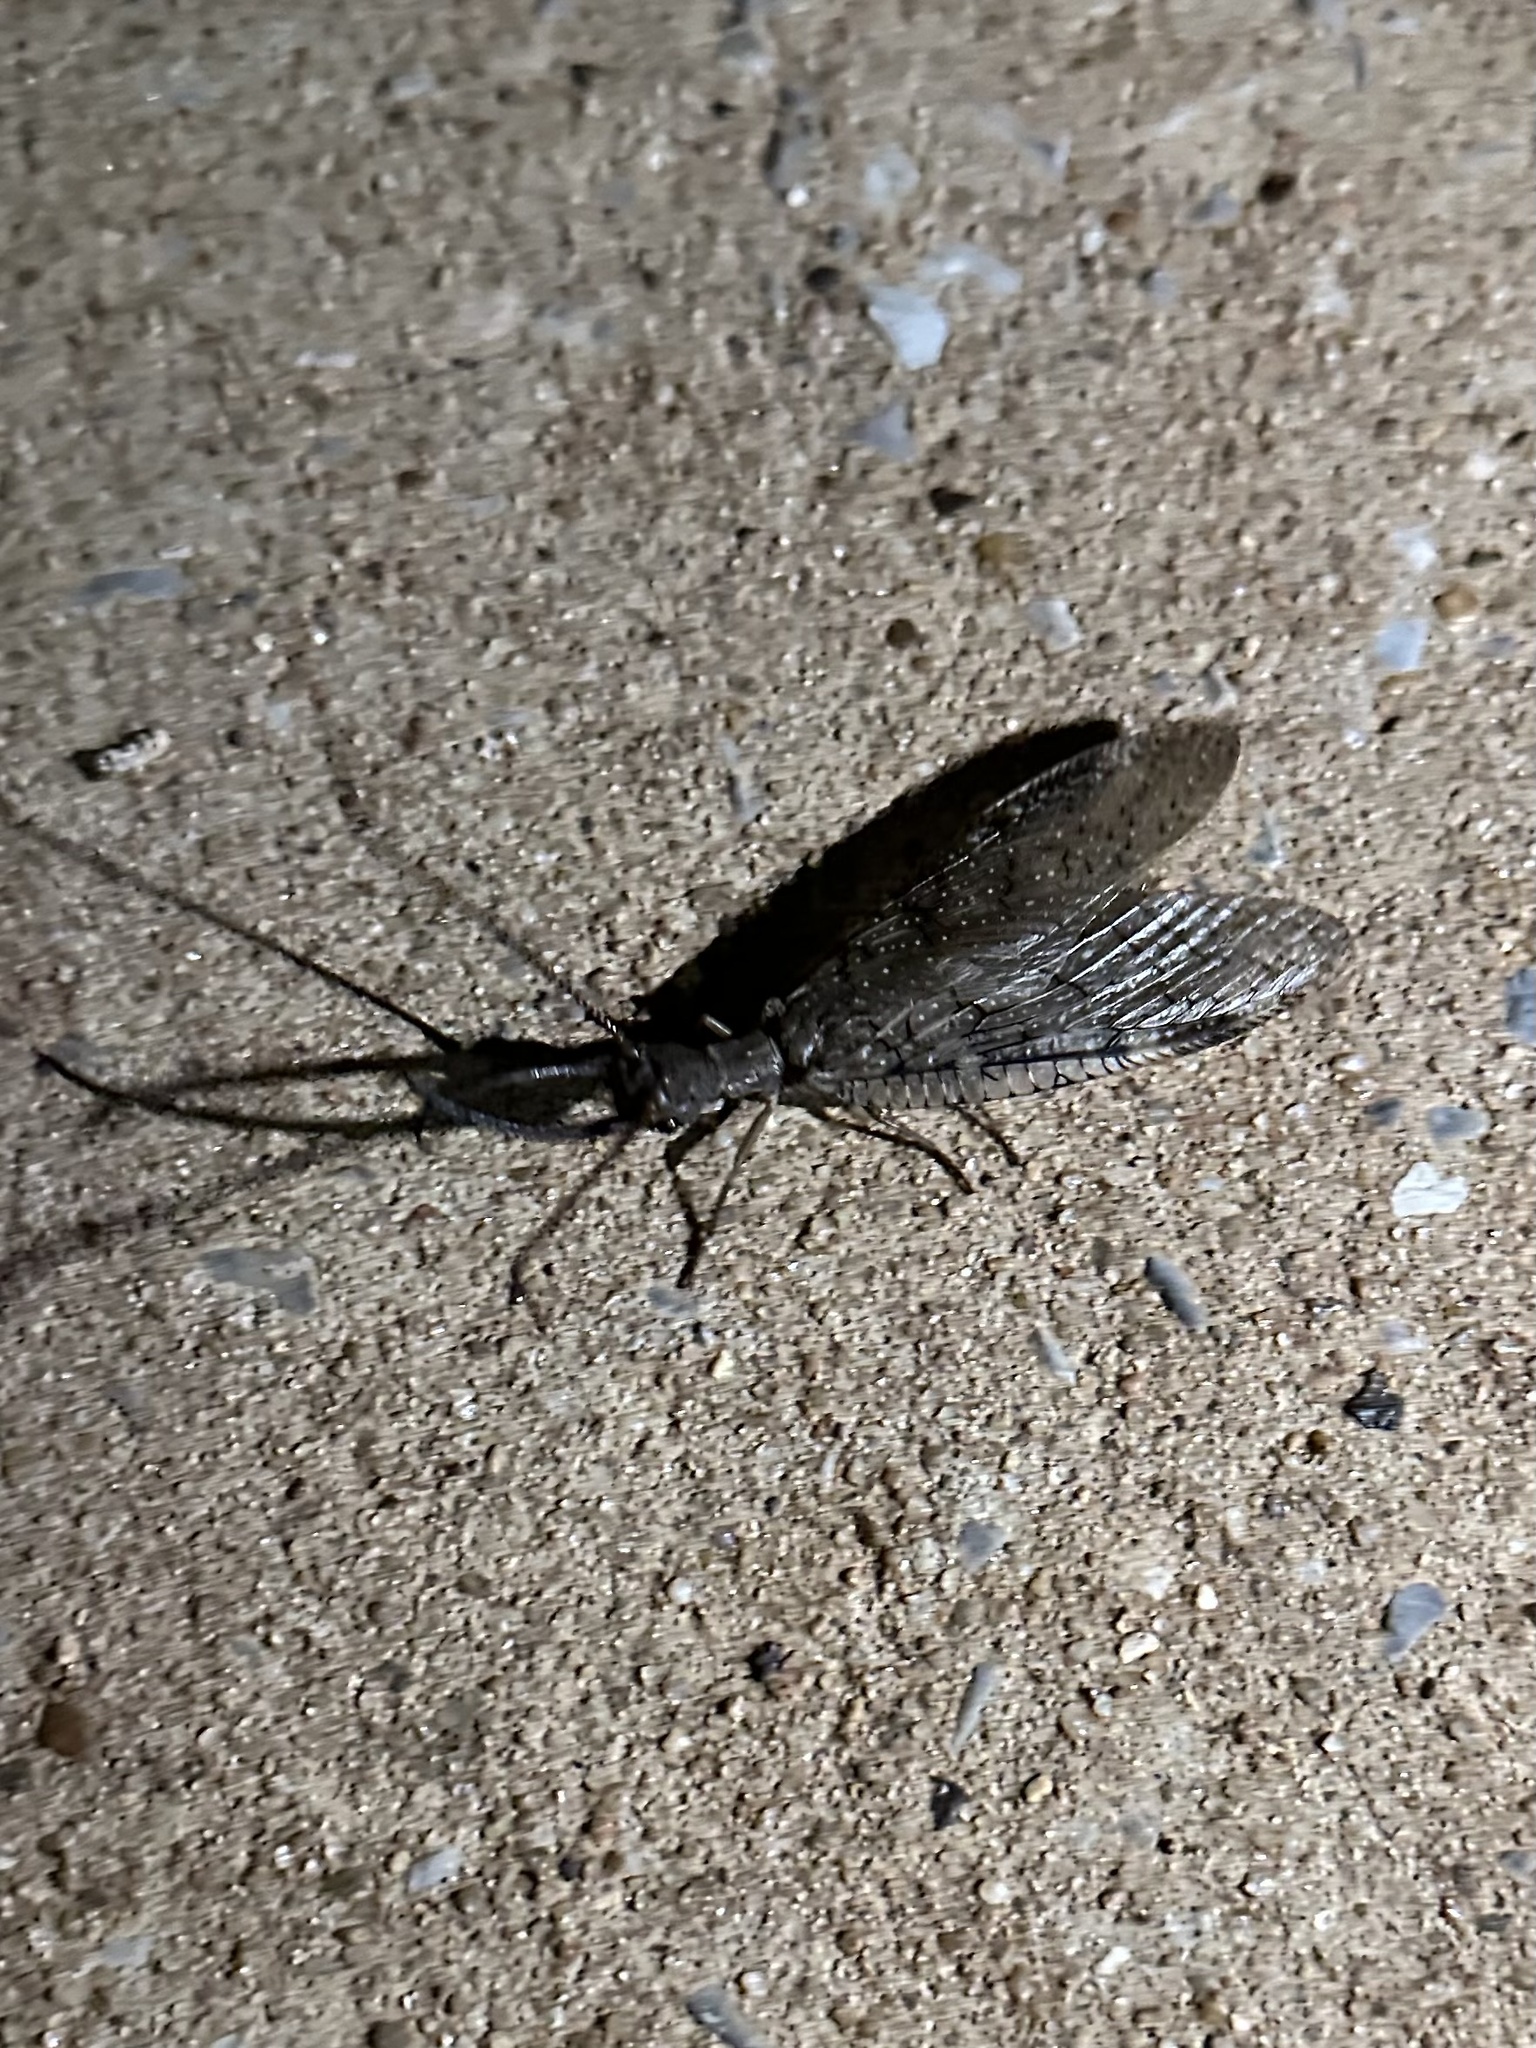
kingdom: Animalia
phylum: Arthropoda
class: Insecta
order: Megaloptera
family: Corydalidae
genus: Corydalus
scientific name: Corydalus cornutus
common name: Dobsonfly
